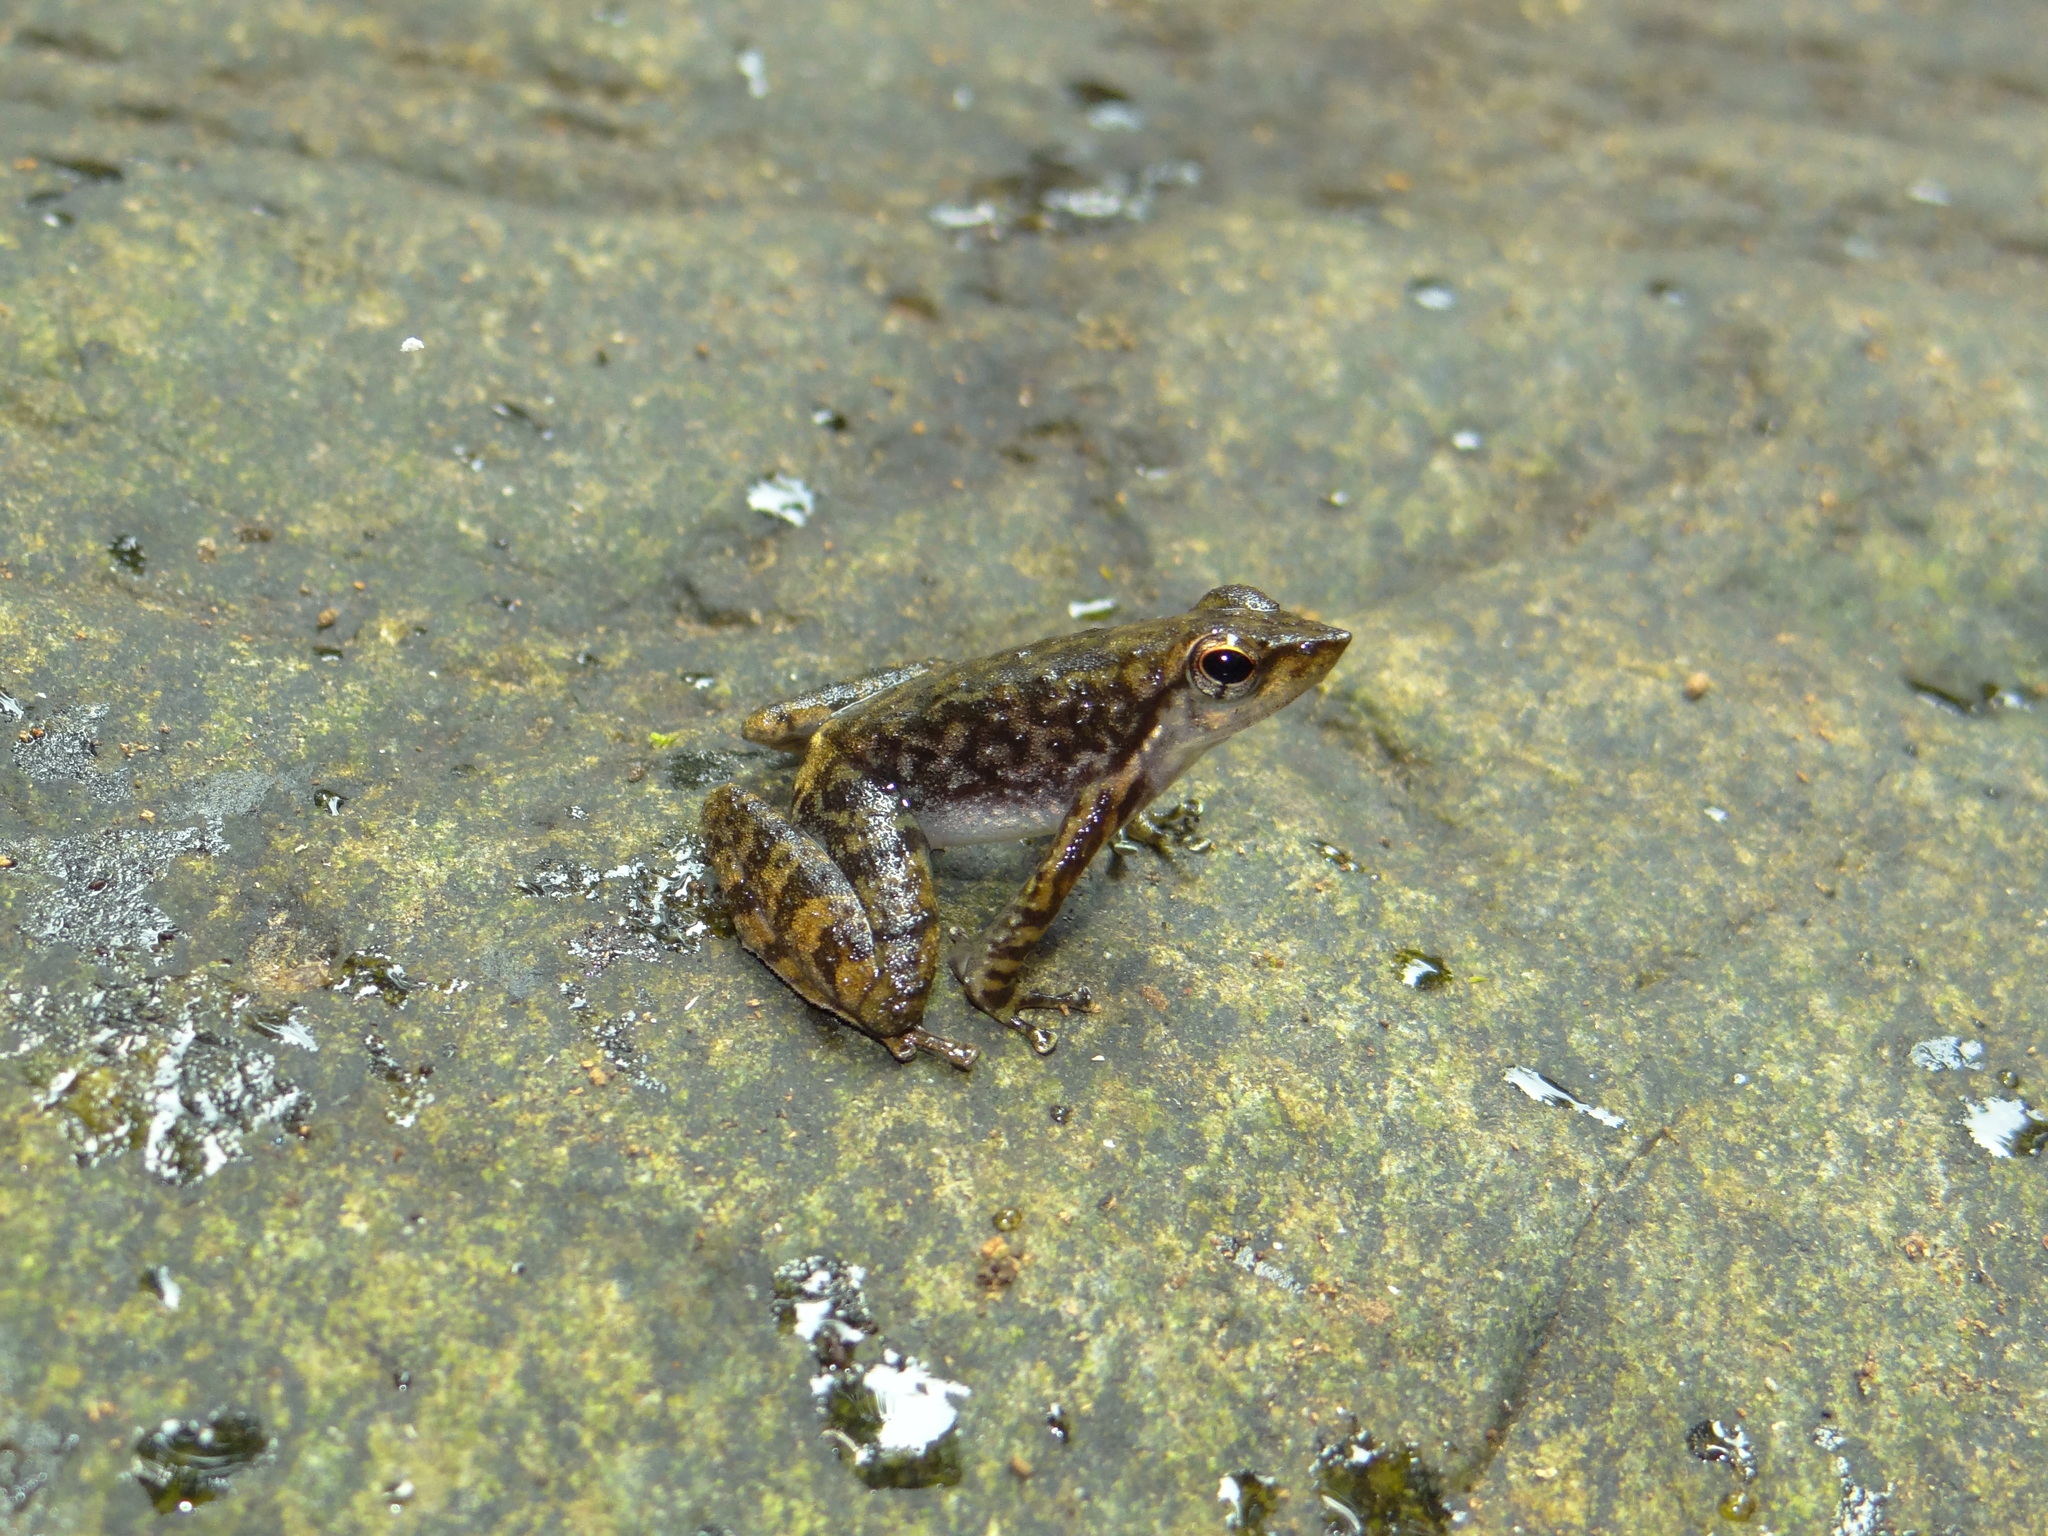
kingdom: Animalia
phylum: Chordata
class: Amphibia
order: Anura
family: Micrixalidae
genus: Micrixalus
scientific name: Micrixalus saxicola
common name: Black torrent frog
